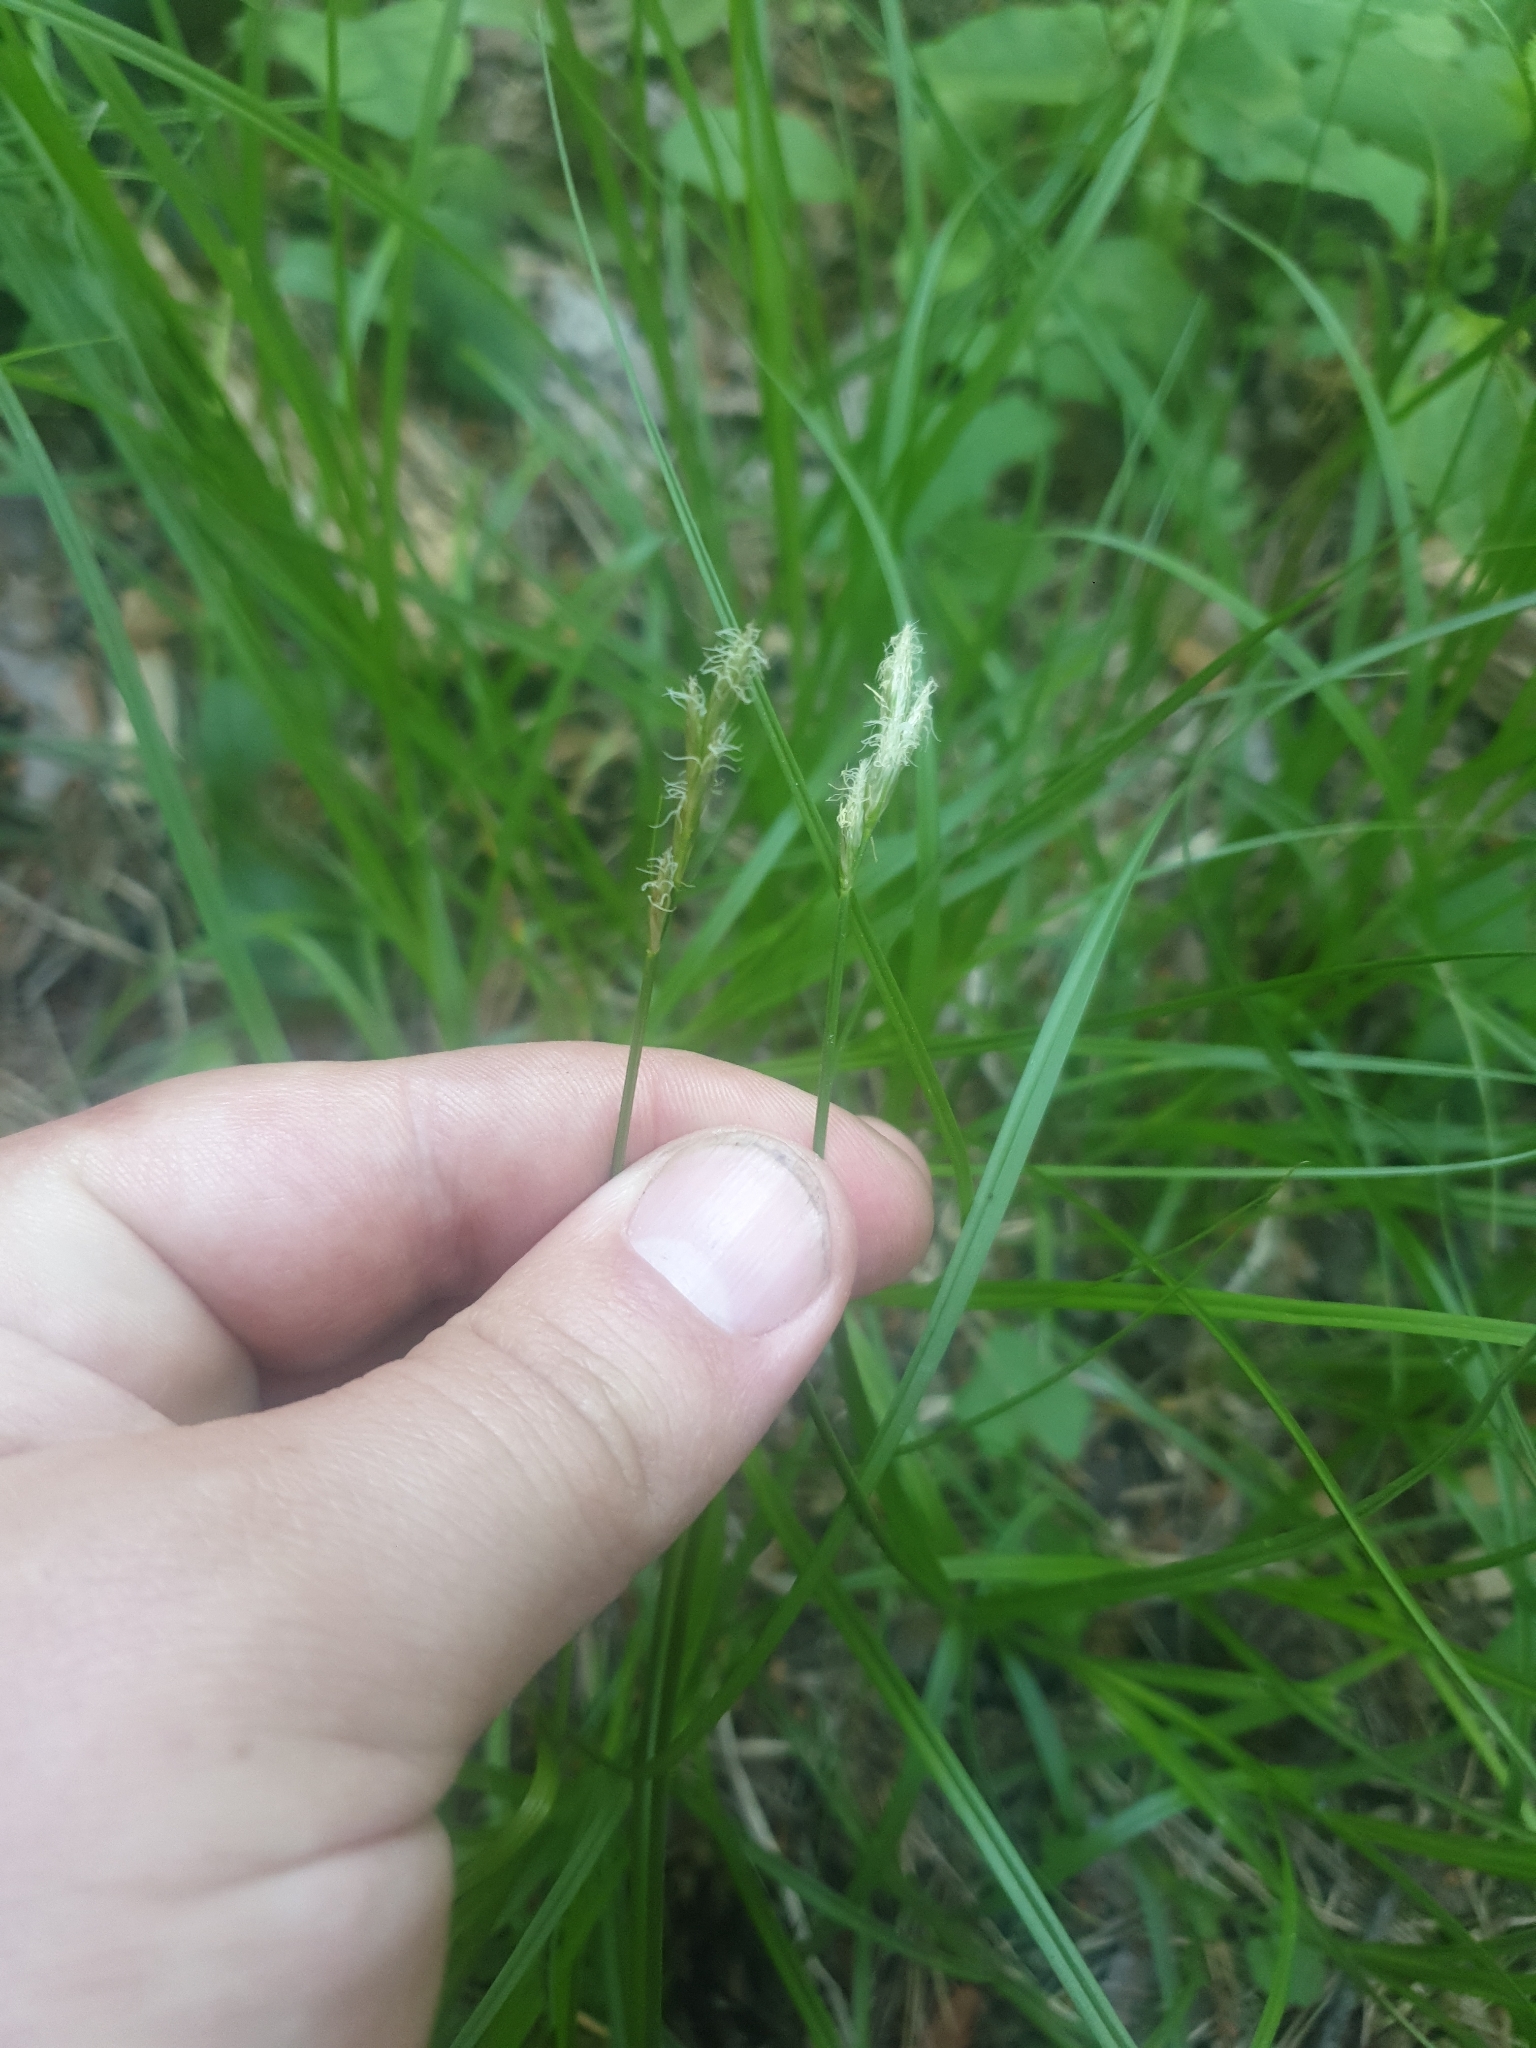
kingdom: Plantae
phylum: Tracheophyta
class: Liliopsida
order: Poales
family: Cyperaceae
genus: Carex
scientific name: Carex leporina
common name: Oval sedge
